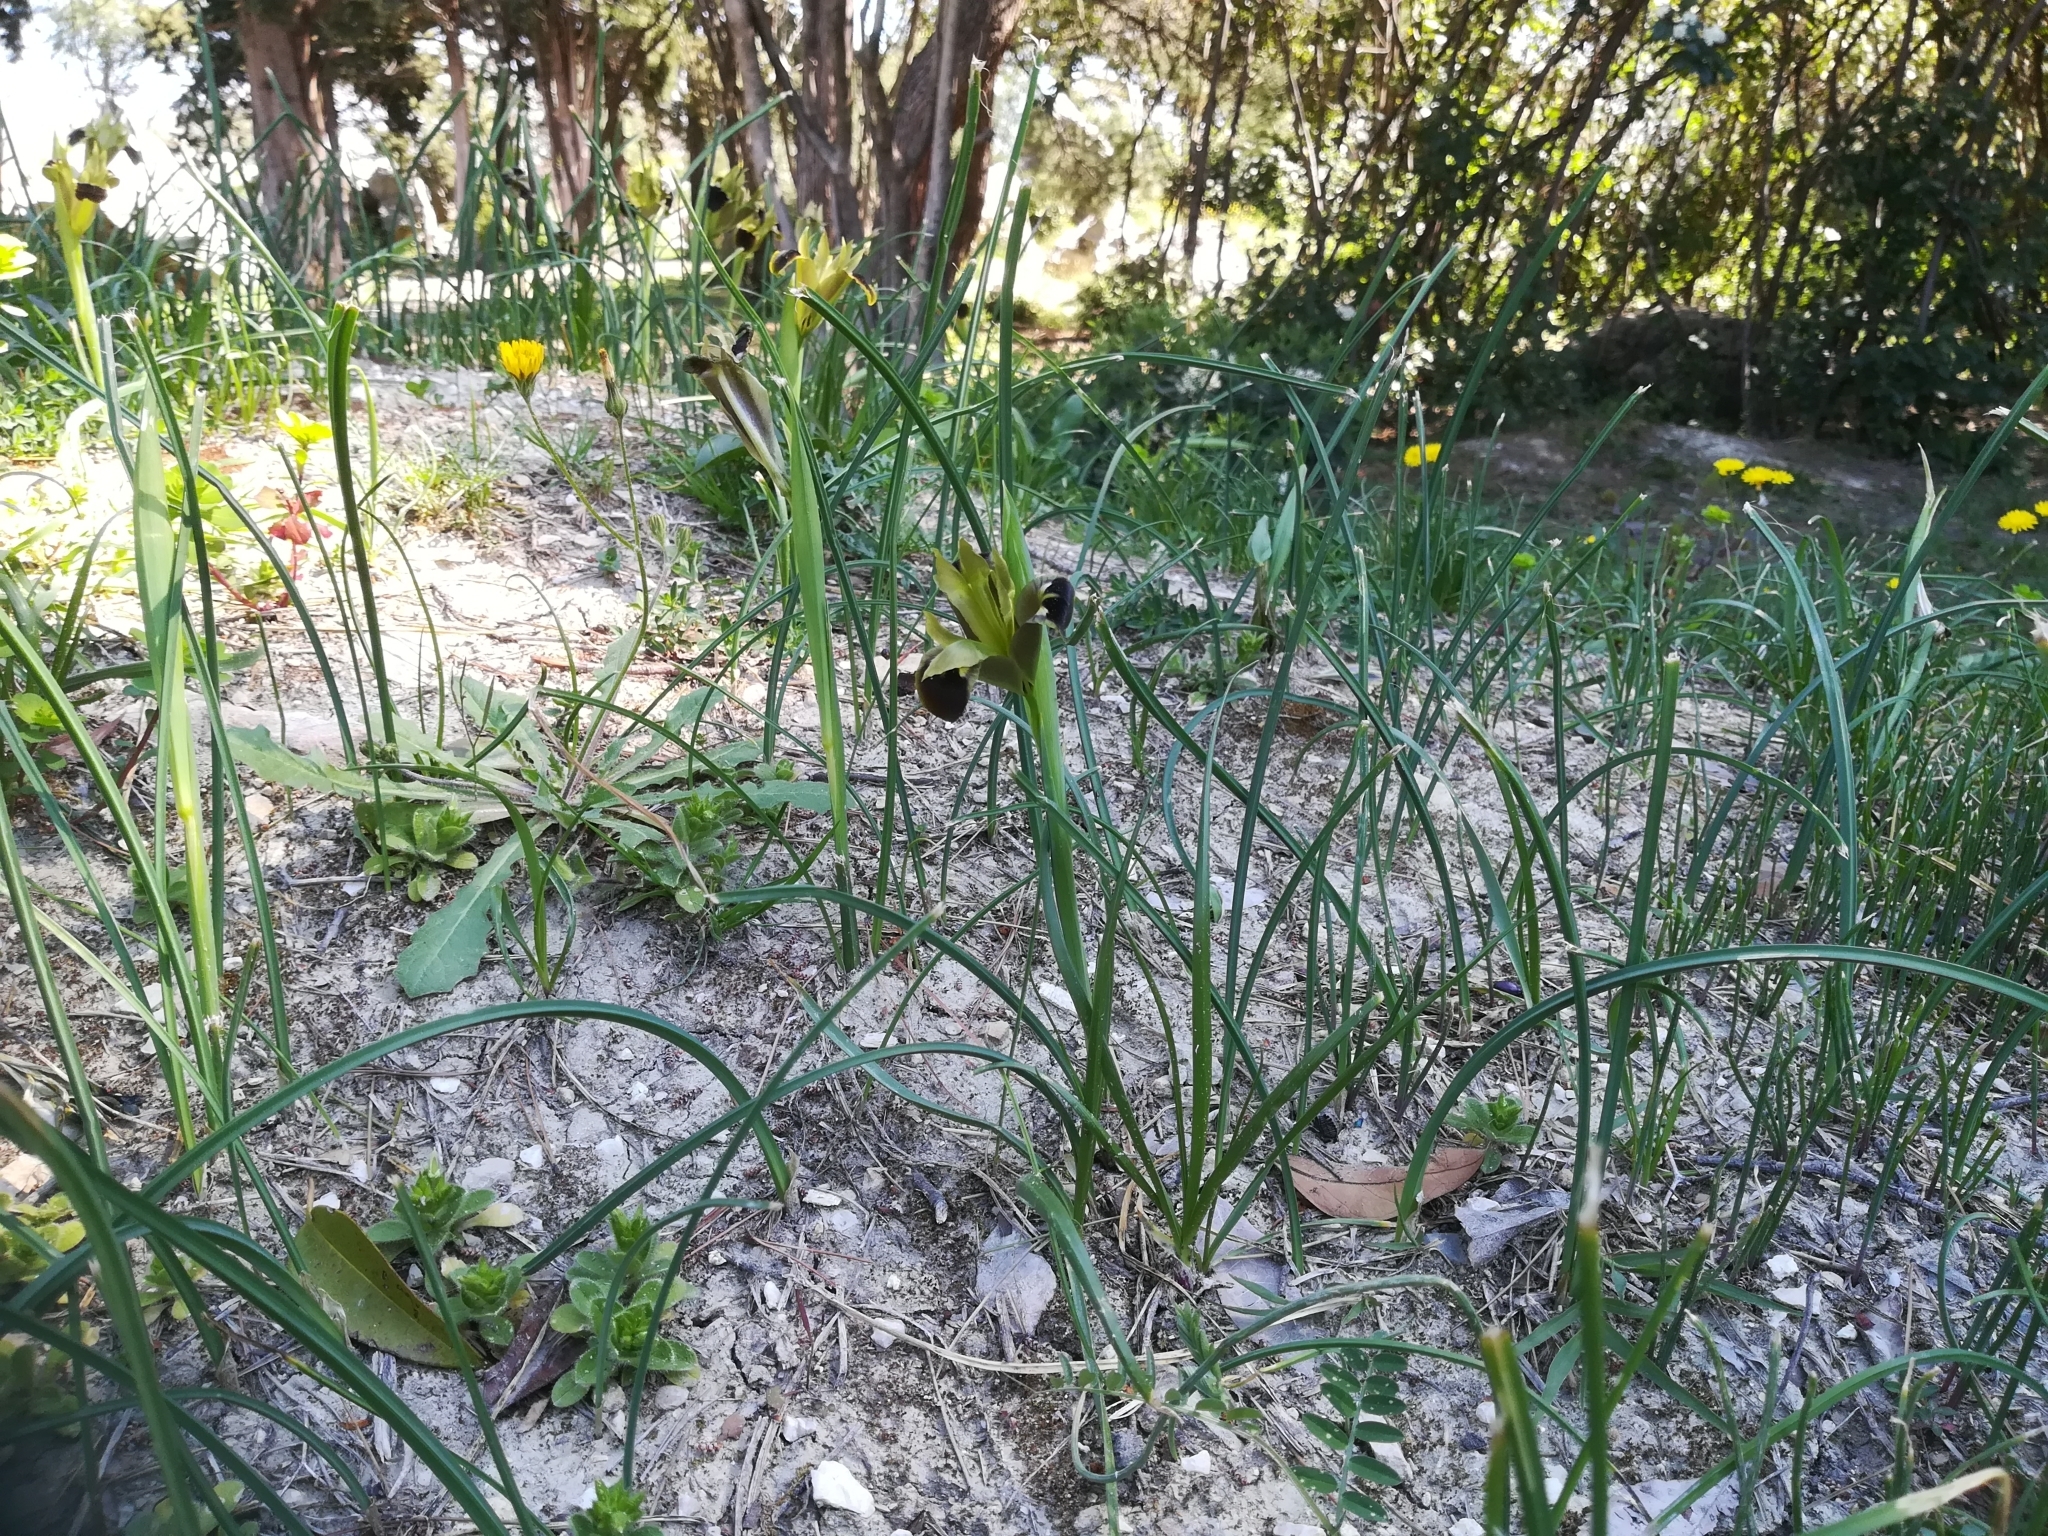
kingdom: Plantae
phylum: Tracheophyta
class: Liliopsida
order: Asparagales
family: Iridaceae
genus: Iris
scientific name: Iris tuberosa
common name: Snake's-head iris
